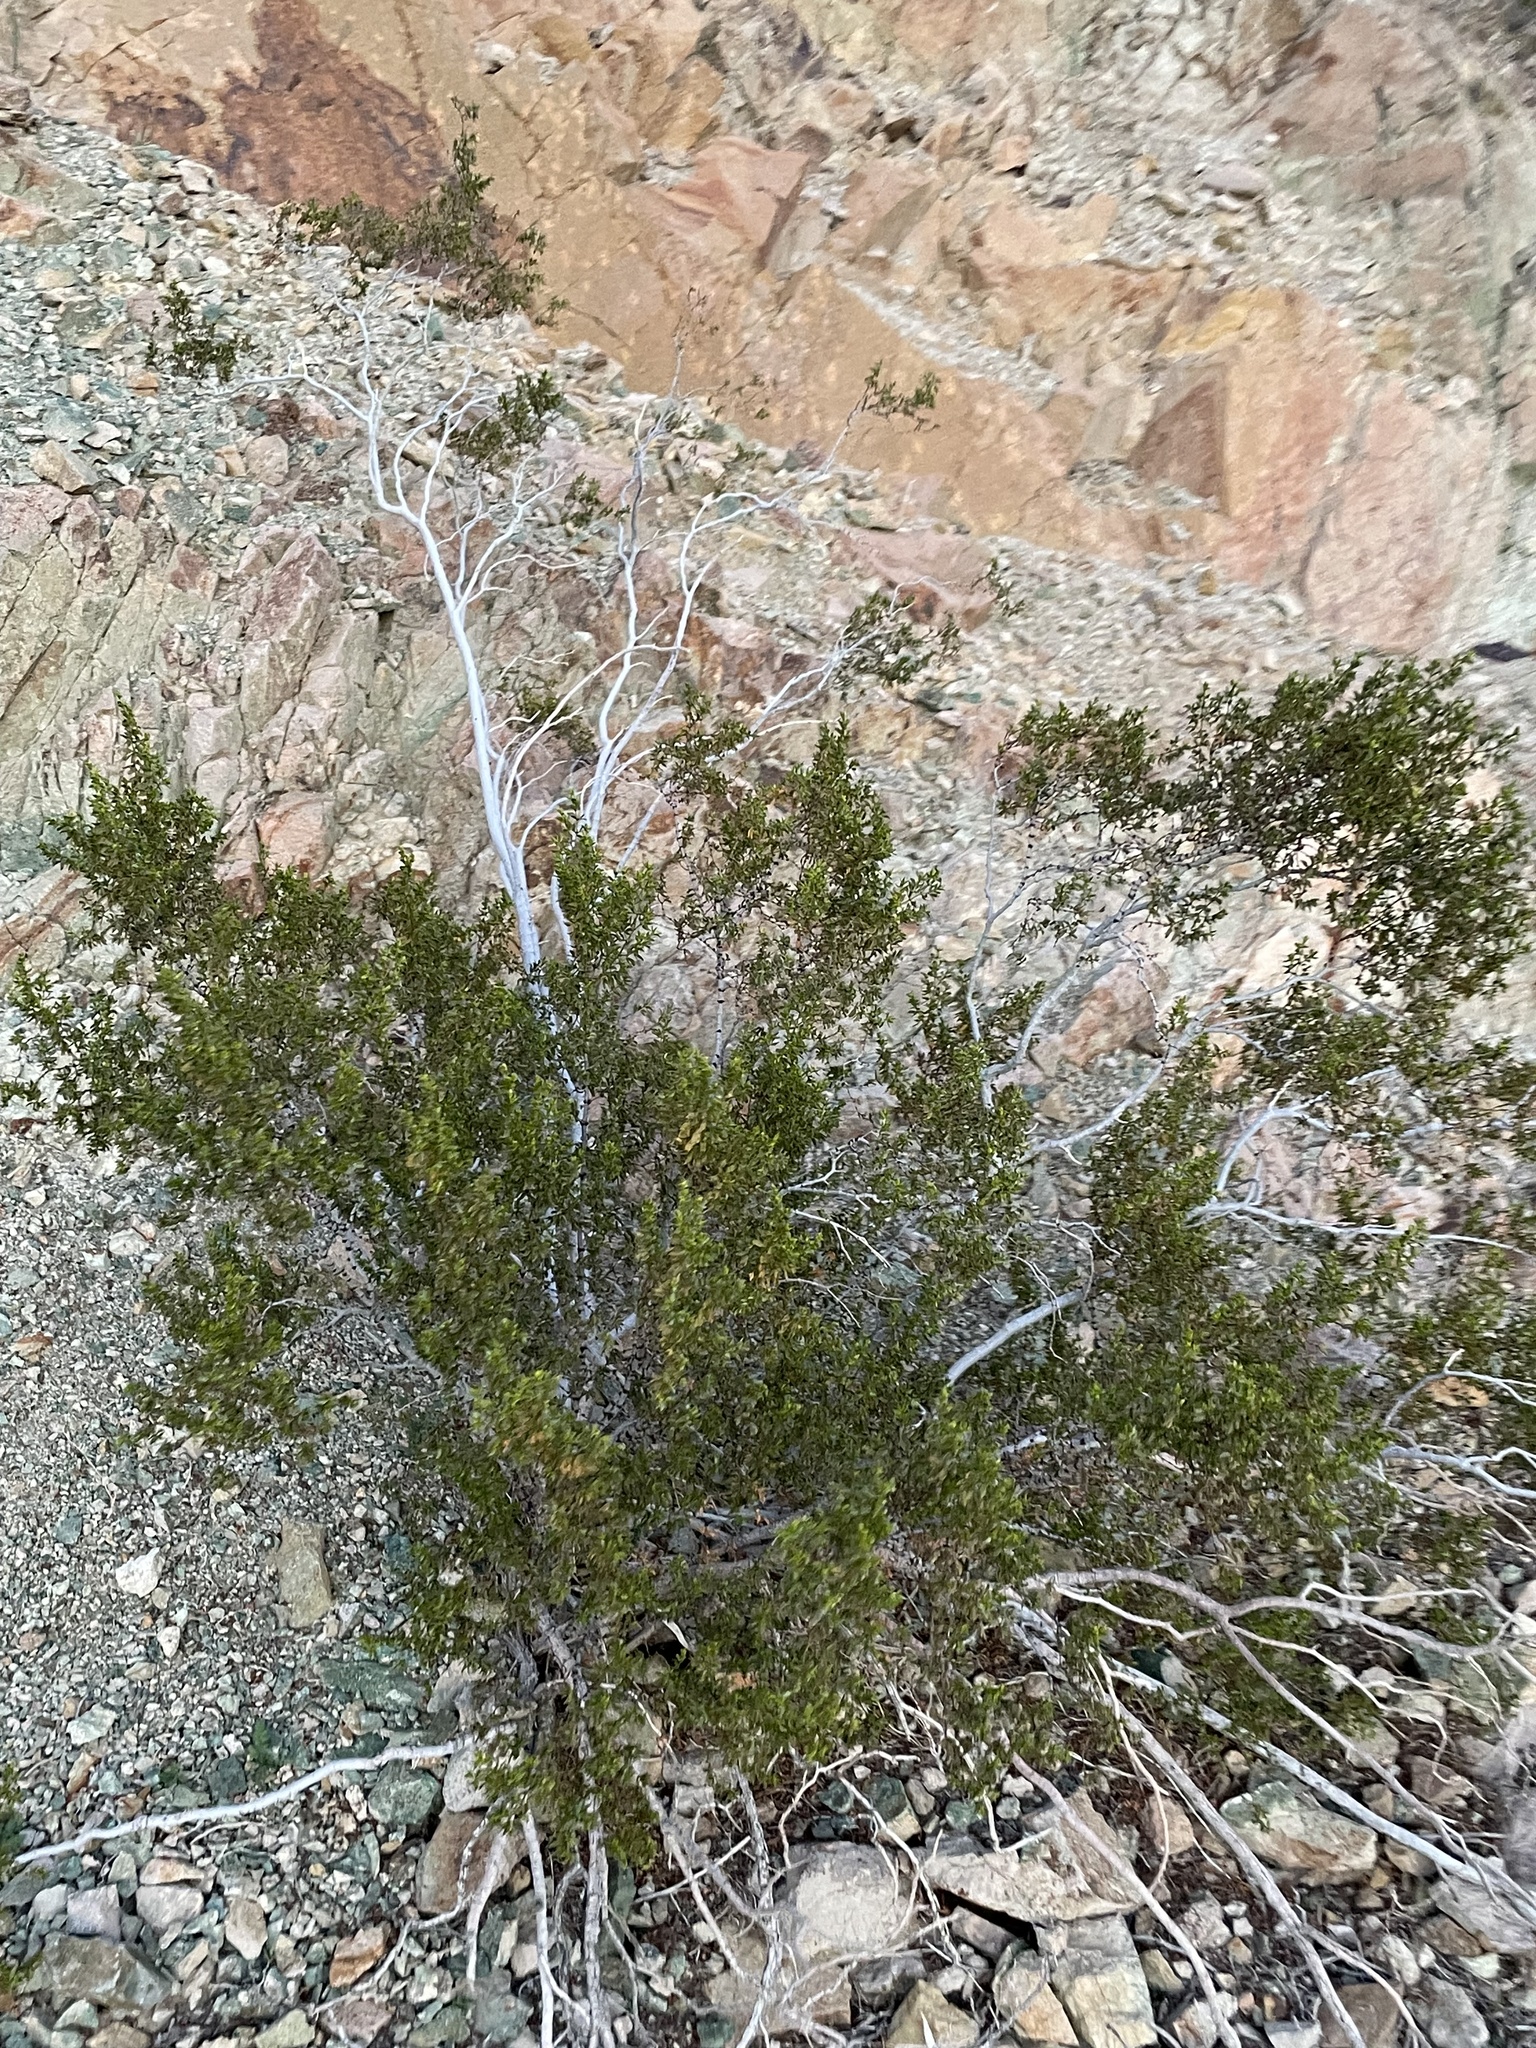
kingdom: Plantae
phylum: Tracheophyta
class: Magnoliopsida
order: Zygophyllales
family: Zygophyllaceae
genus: Larrea
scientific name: Larrea tridentata
